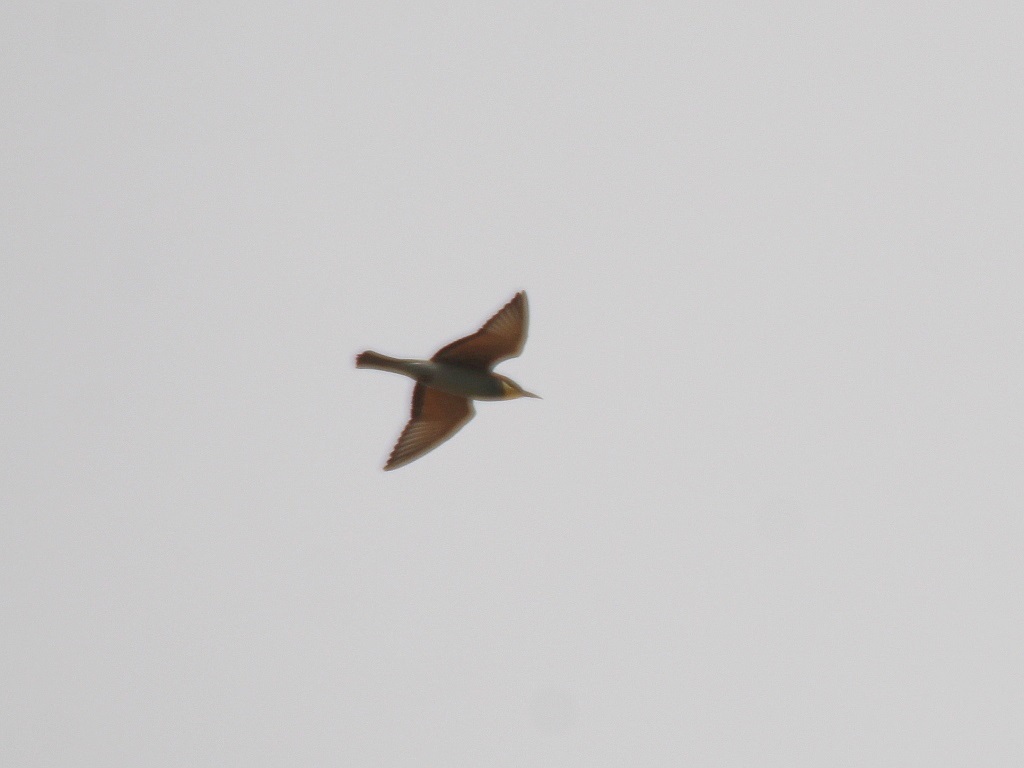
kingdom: Animalia
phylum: Chordata
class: Aves
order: Coraciiformes
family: Meropidae
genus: Merops
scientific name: Merops apiaster
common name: European bee-eater
